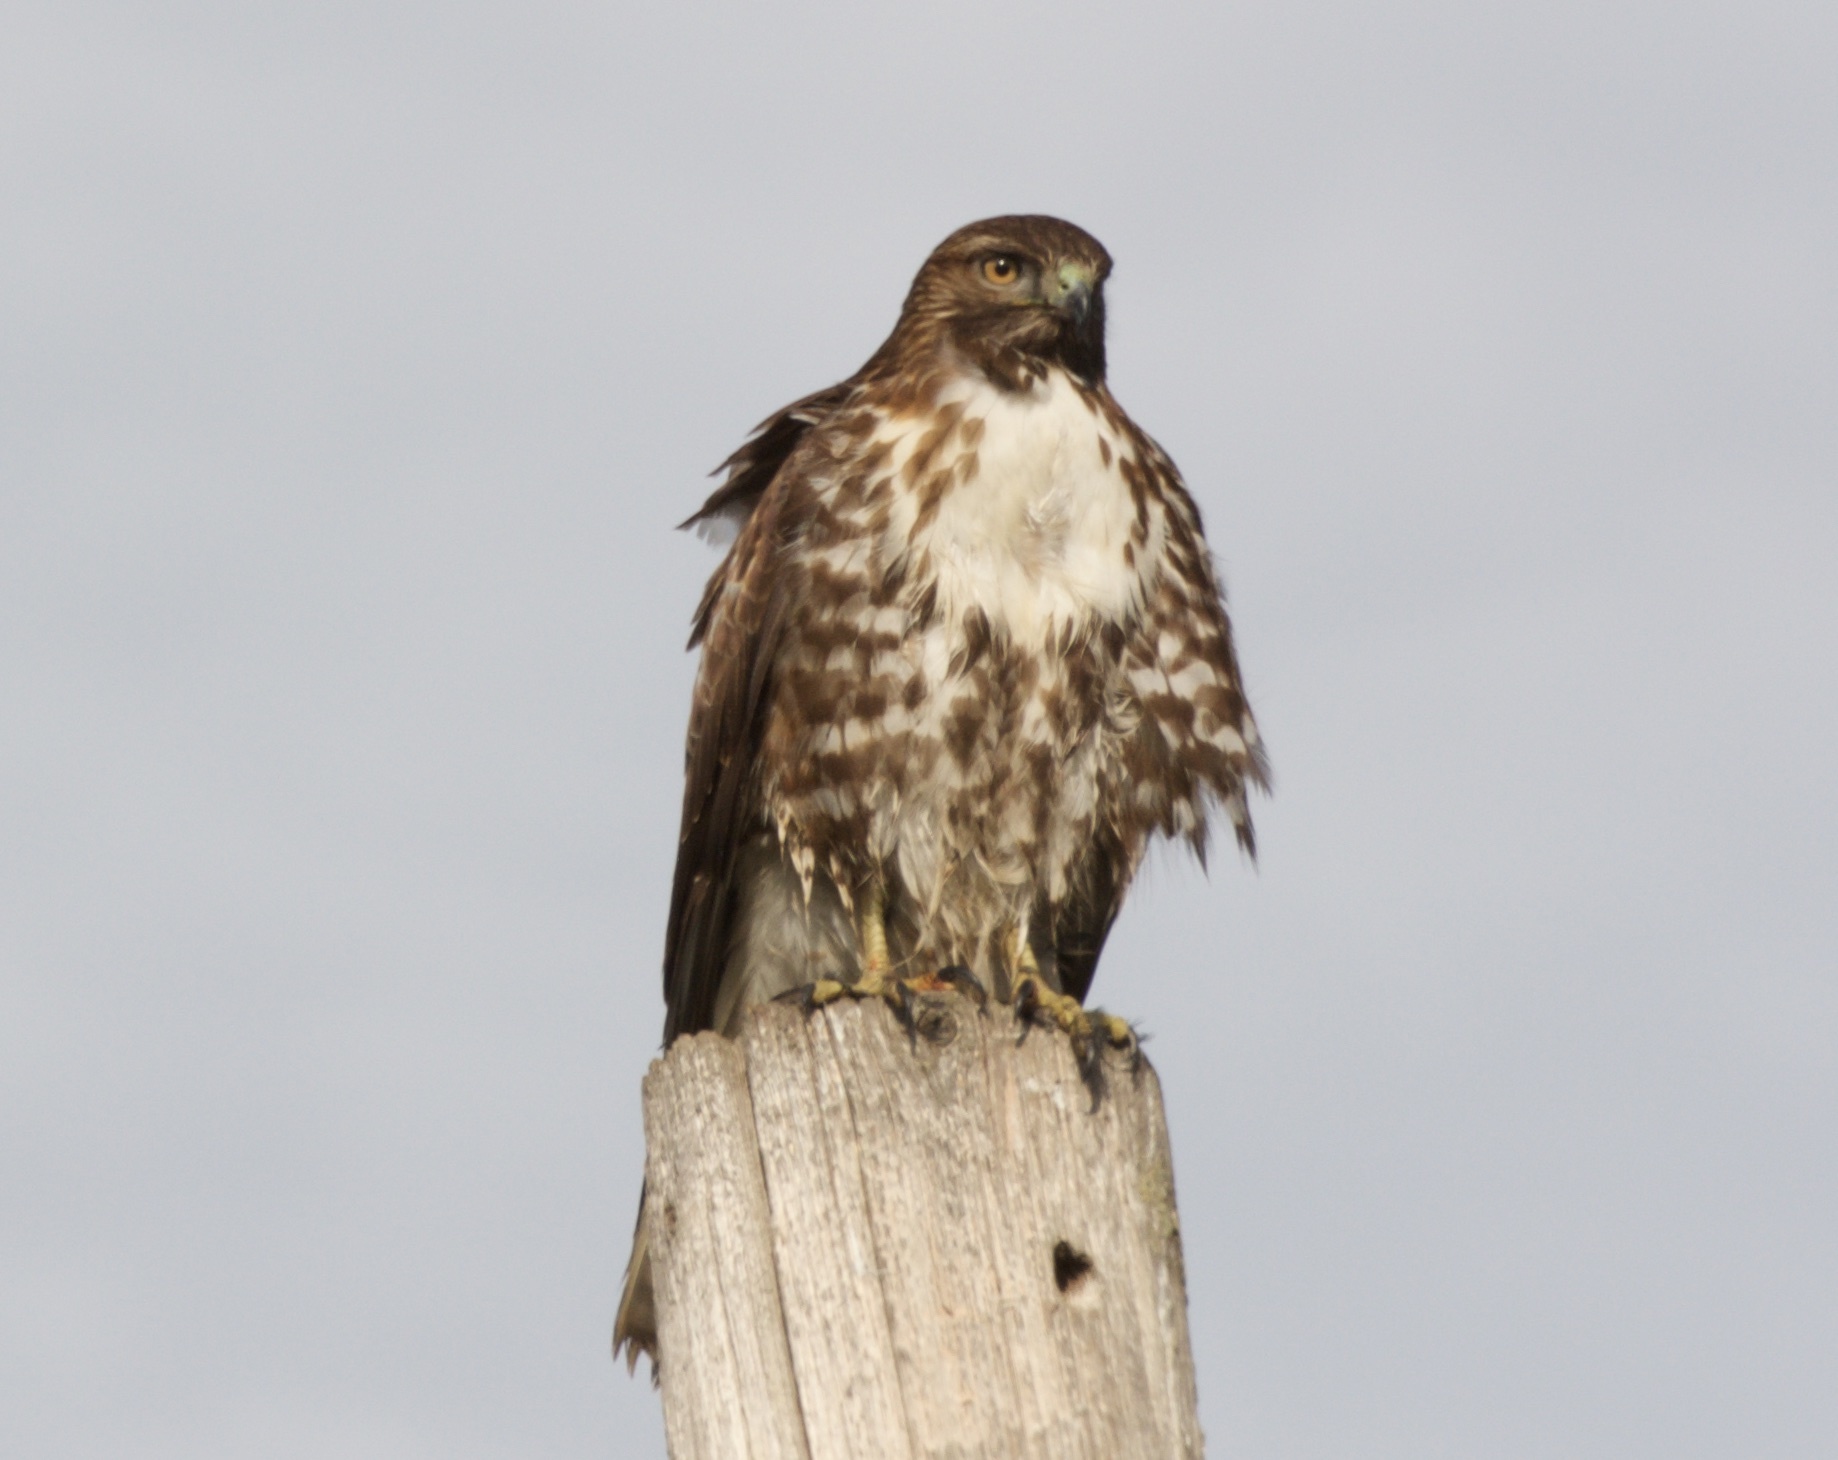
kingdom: Animalia
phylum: Chordata
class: Aves
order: Accipitriformes
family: Accipitridae
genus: Buteo
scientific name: Buteo jamaicensis
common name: Red-tailed hawk
